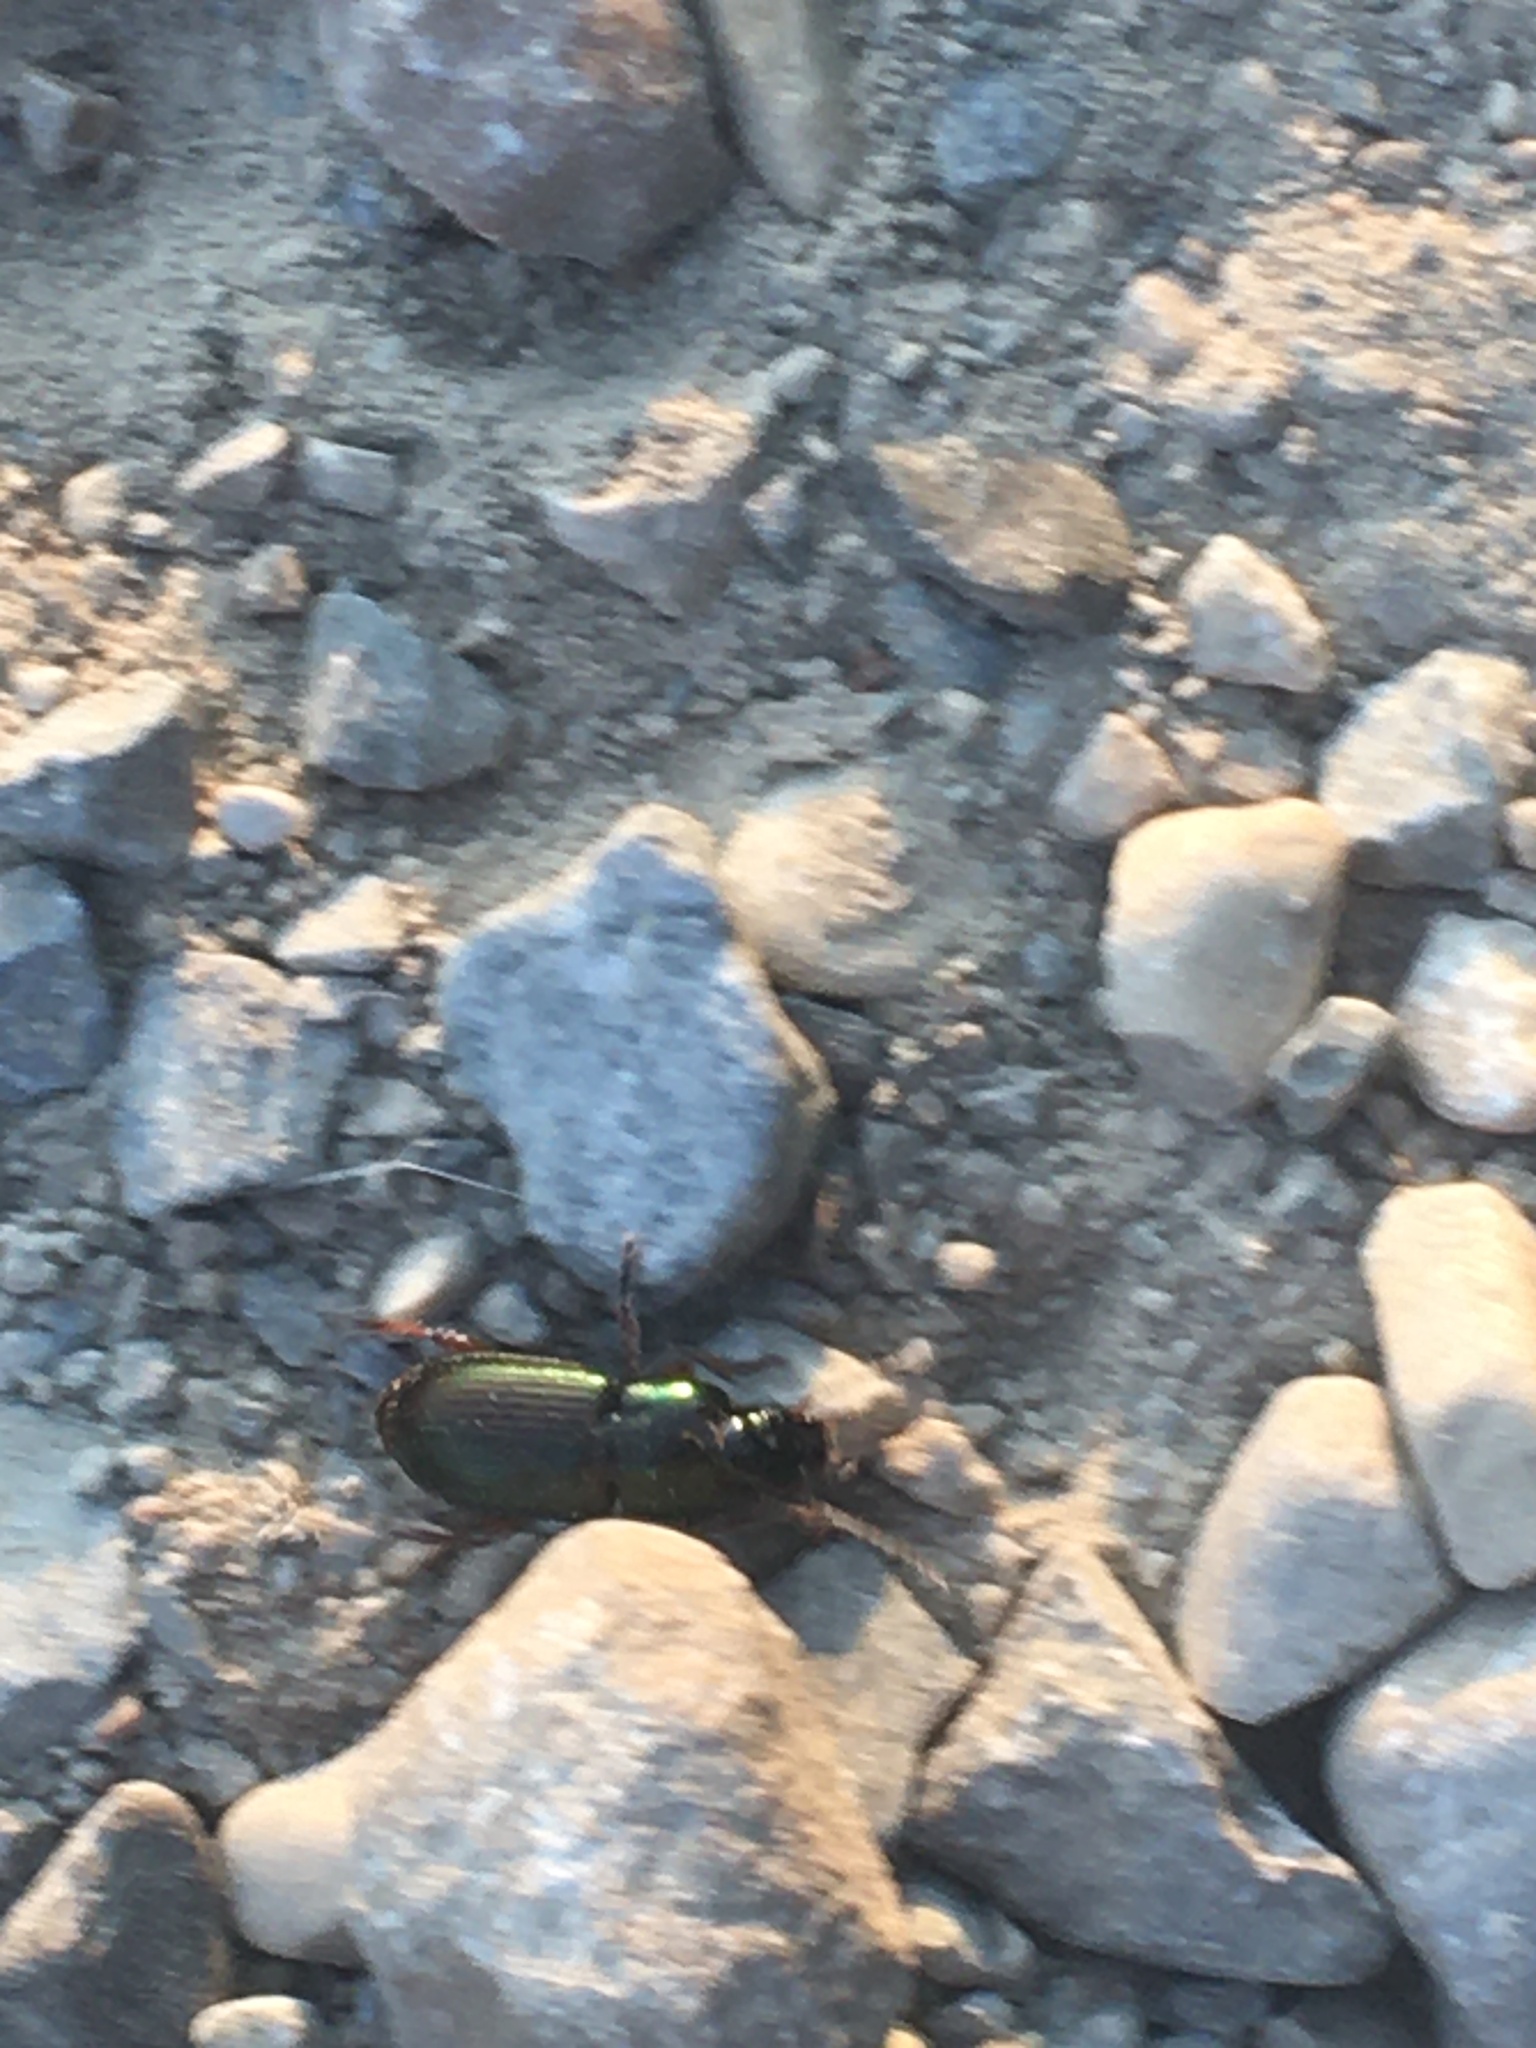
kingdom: Animalia
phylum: Arthropoda
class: Insecta
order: Coleoptera
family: Carabidae
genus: Harpalus
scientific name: Harpalus affinis
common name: Polychrome harp ground beetle
